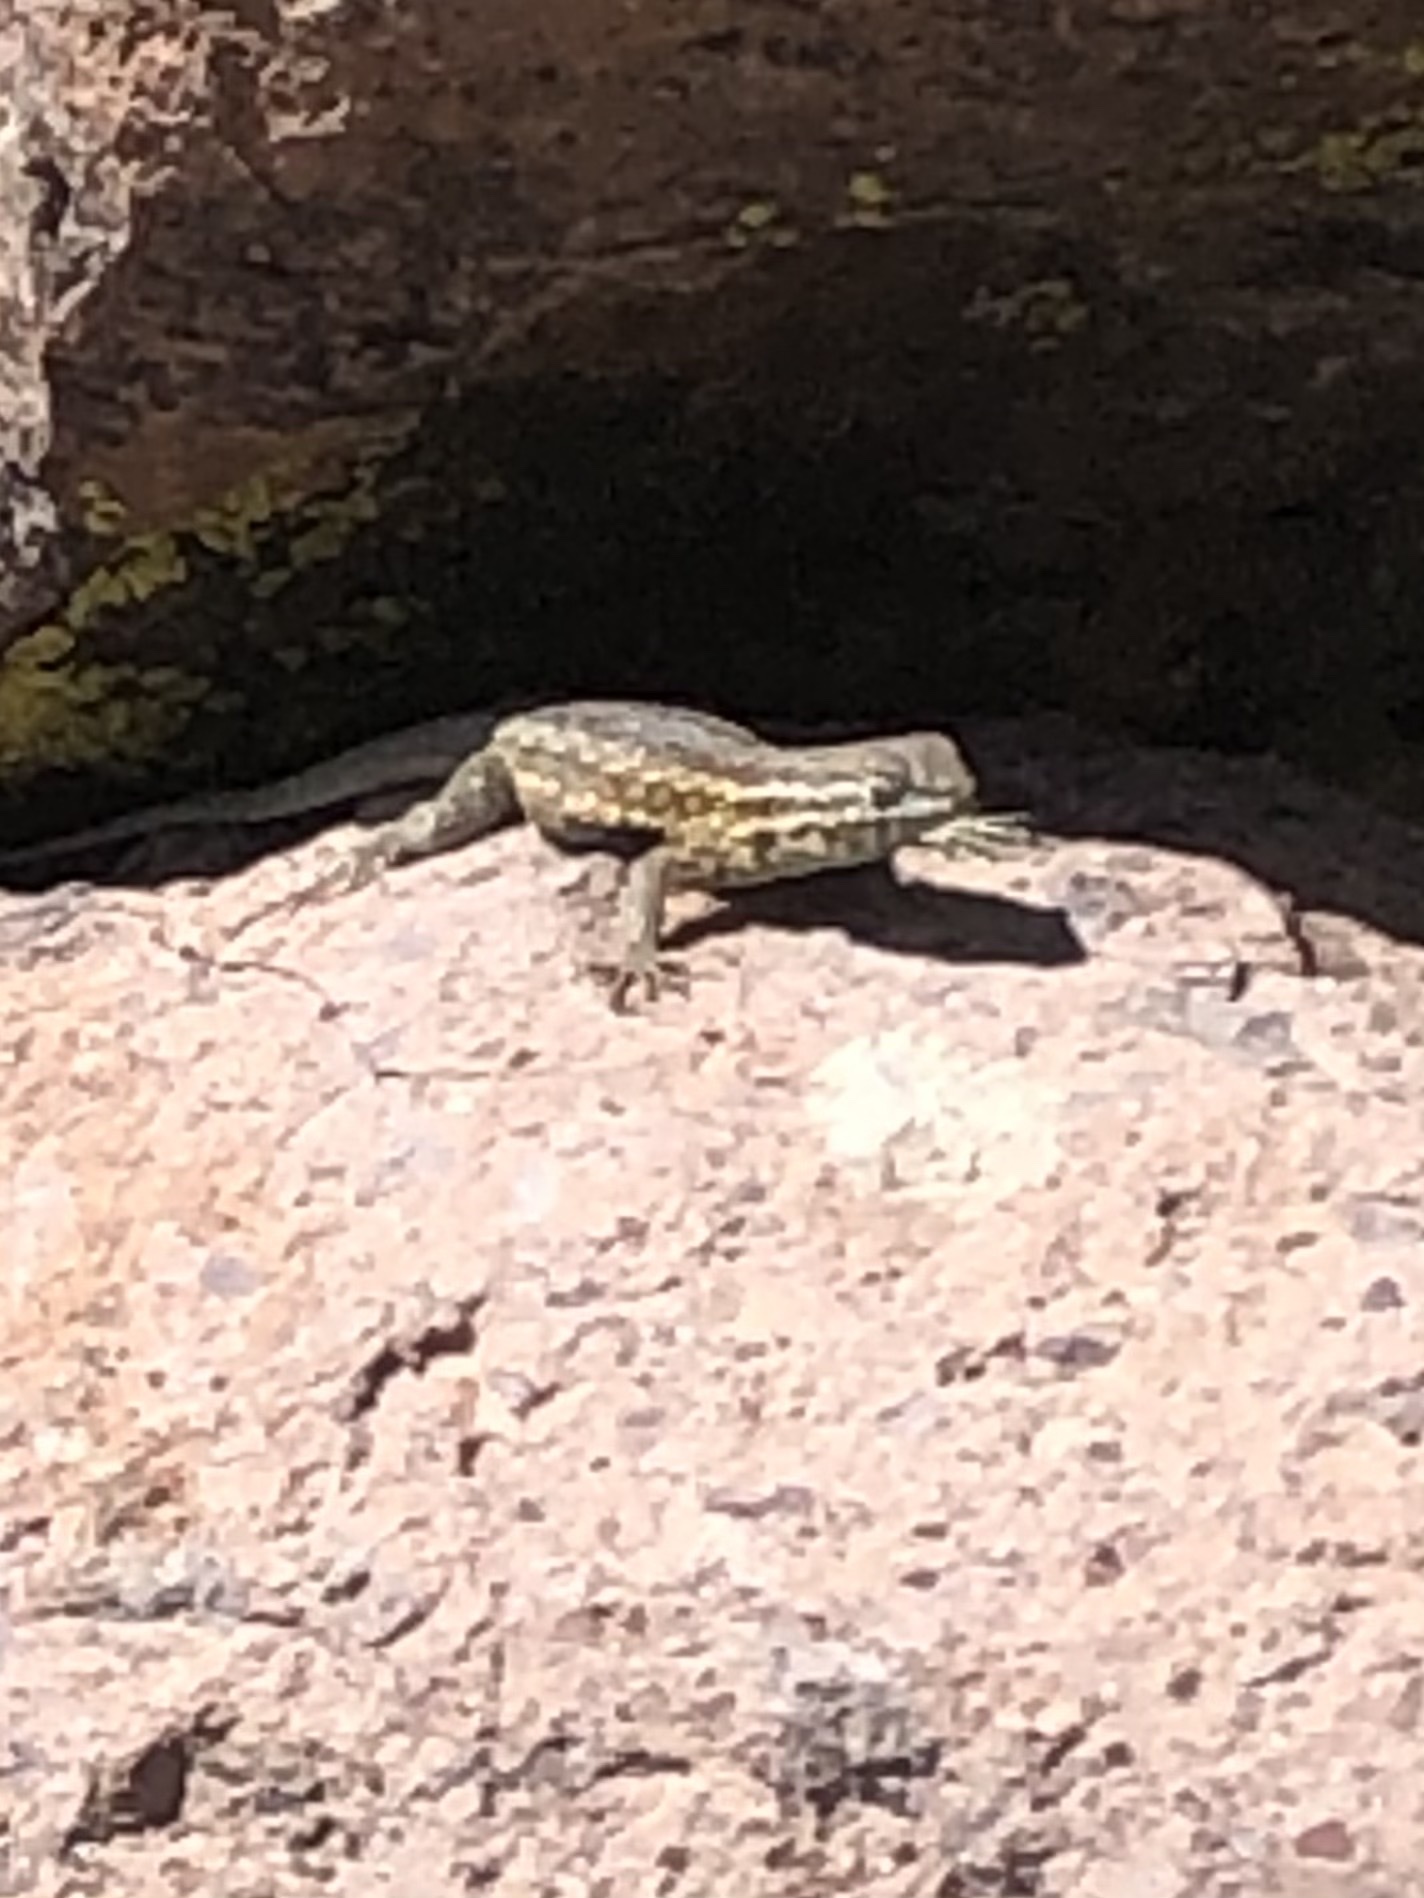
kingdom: Animalia
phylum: Chordata
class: Squamata
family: Phrynosomatidae
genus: Uta
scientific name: Uta stansburiana
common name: Side-blotched lizard
